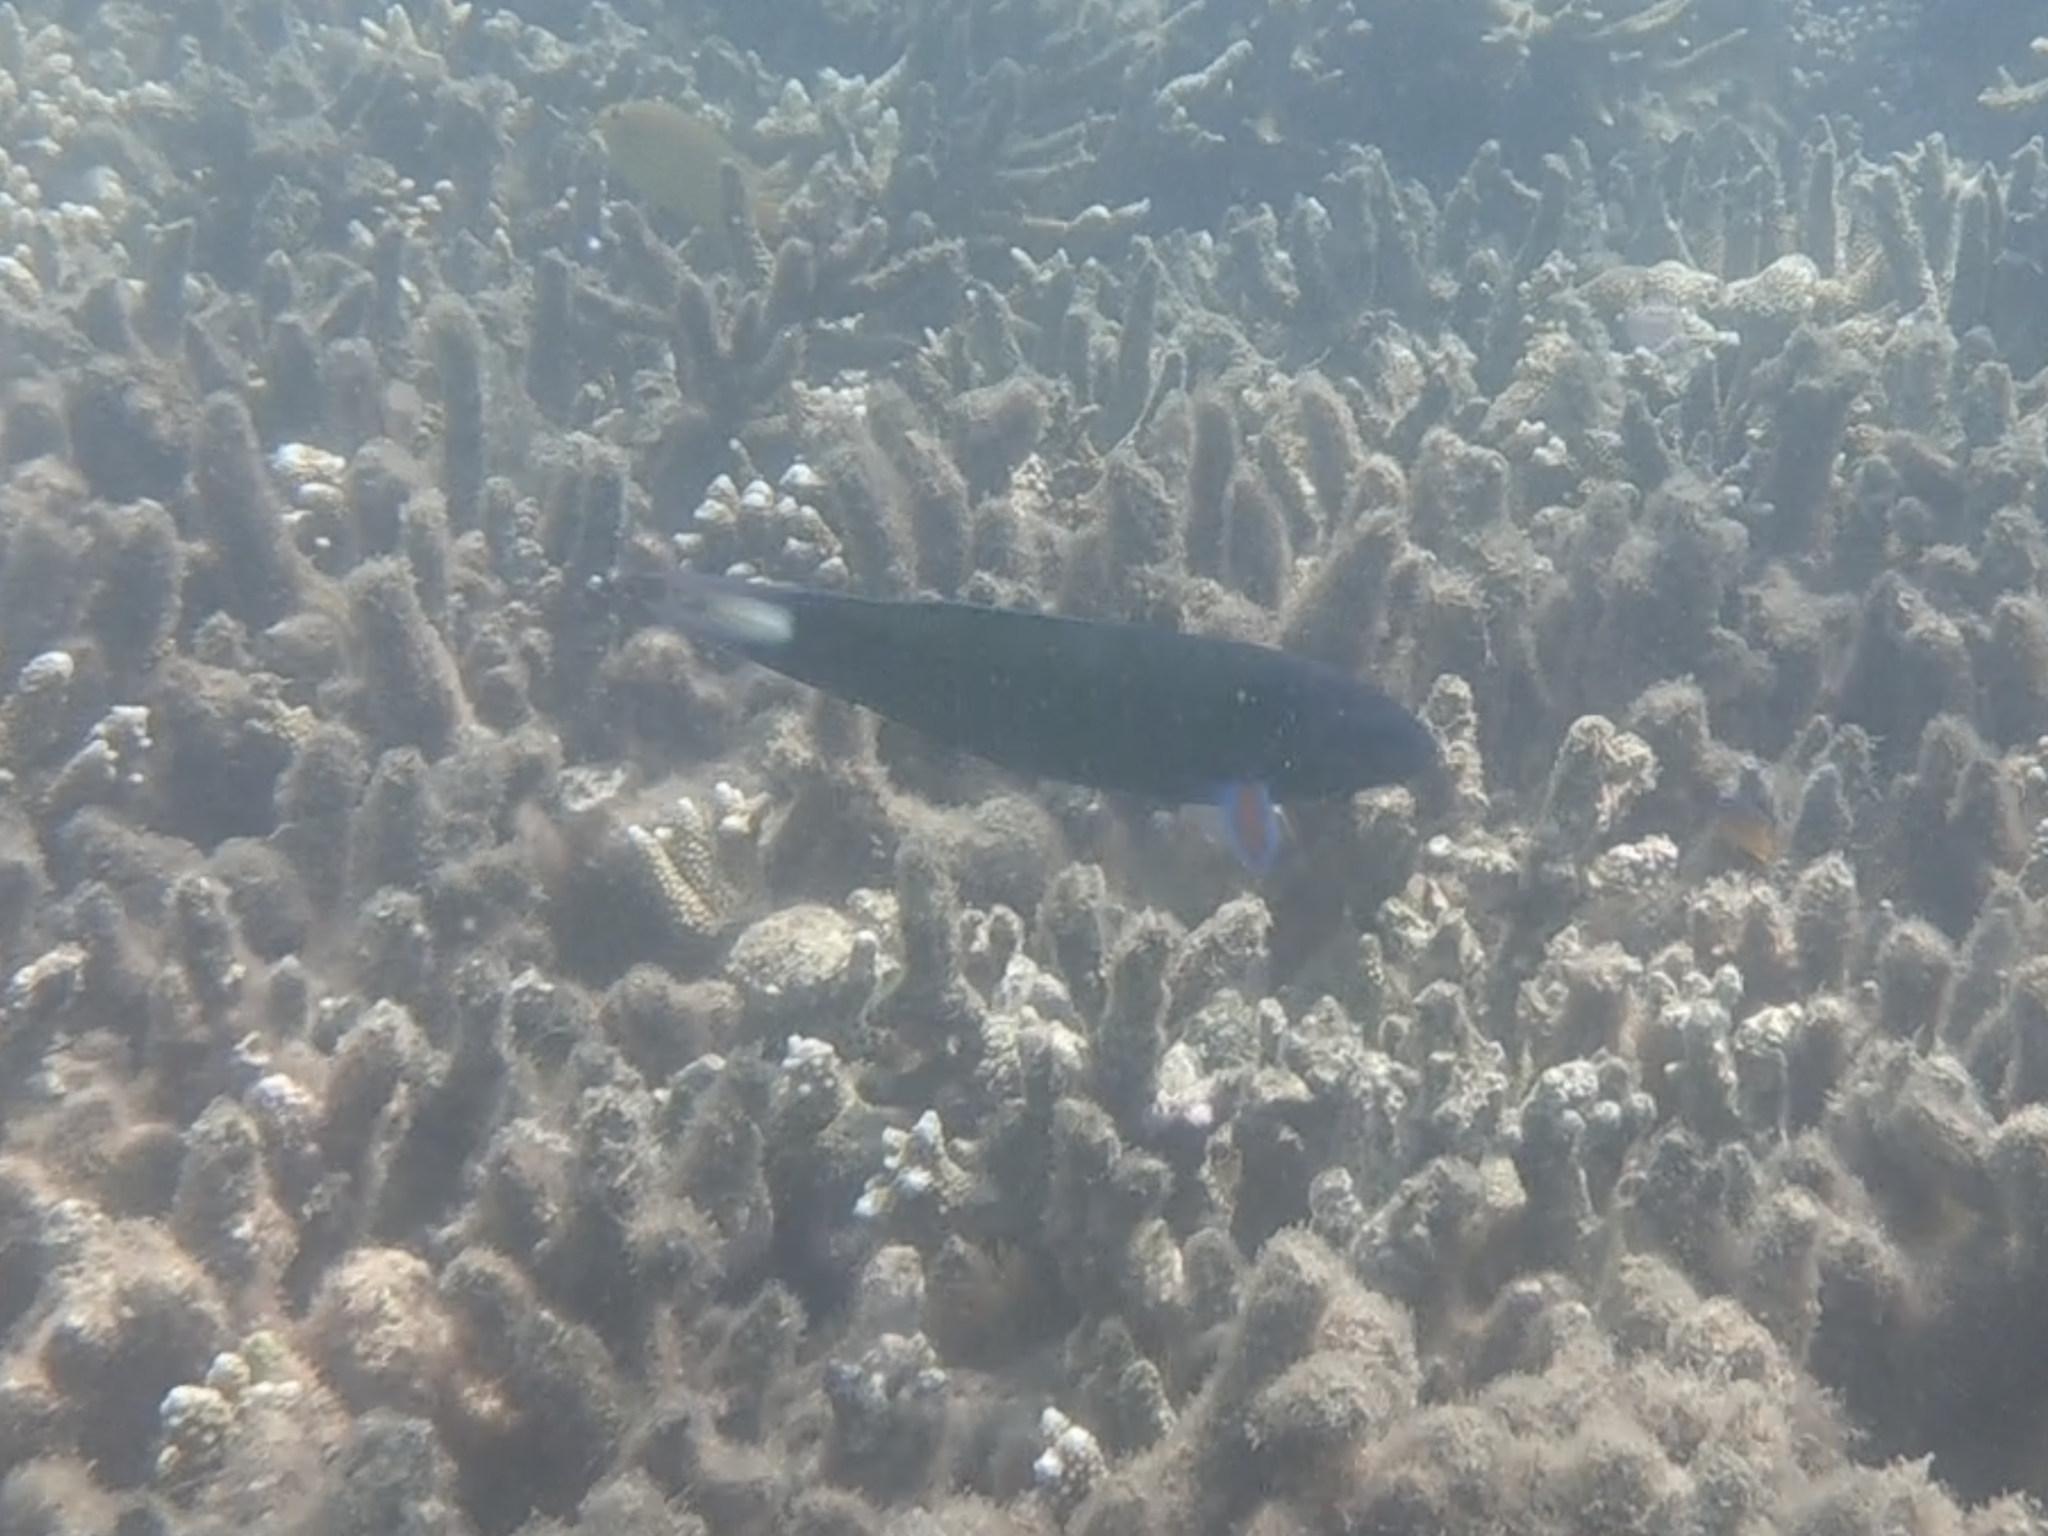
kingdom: Animalia
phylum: Chordata
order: Perciformes
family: Labridae
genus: Thalassoma
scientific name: Thalassoma lunare
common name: Blue wrasse
